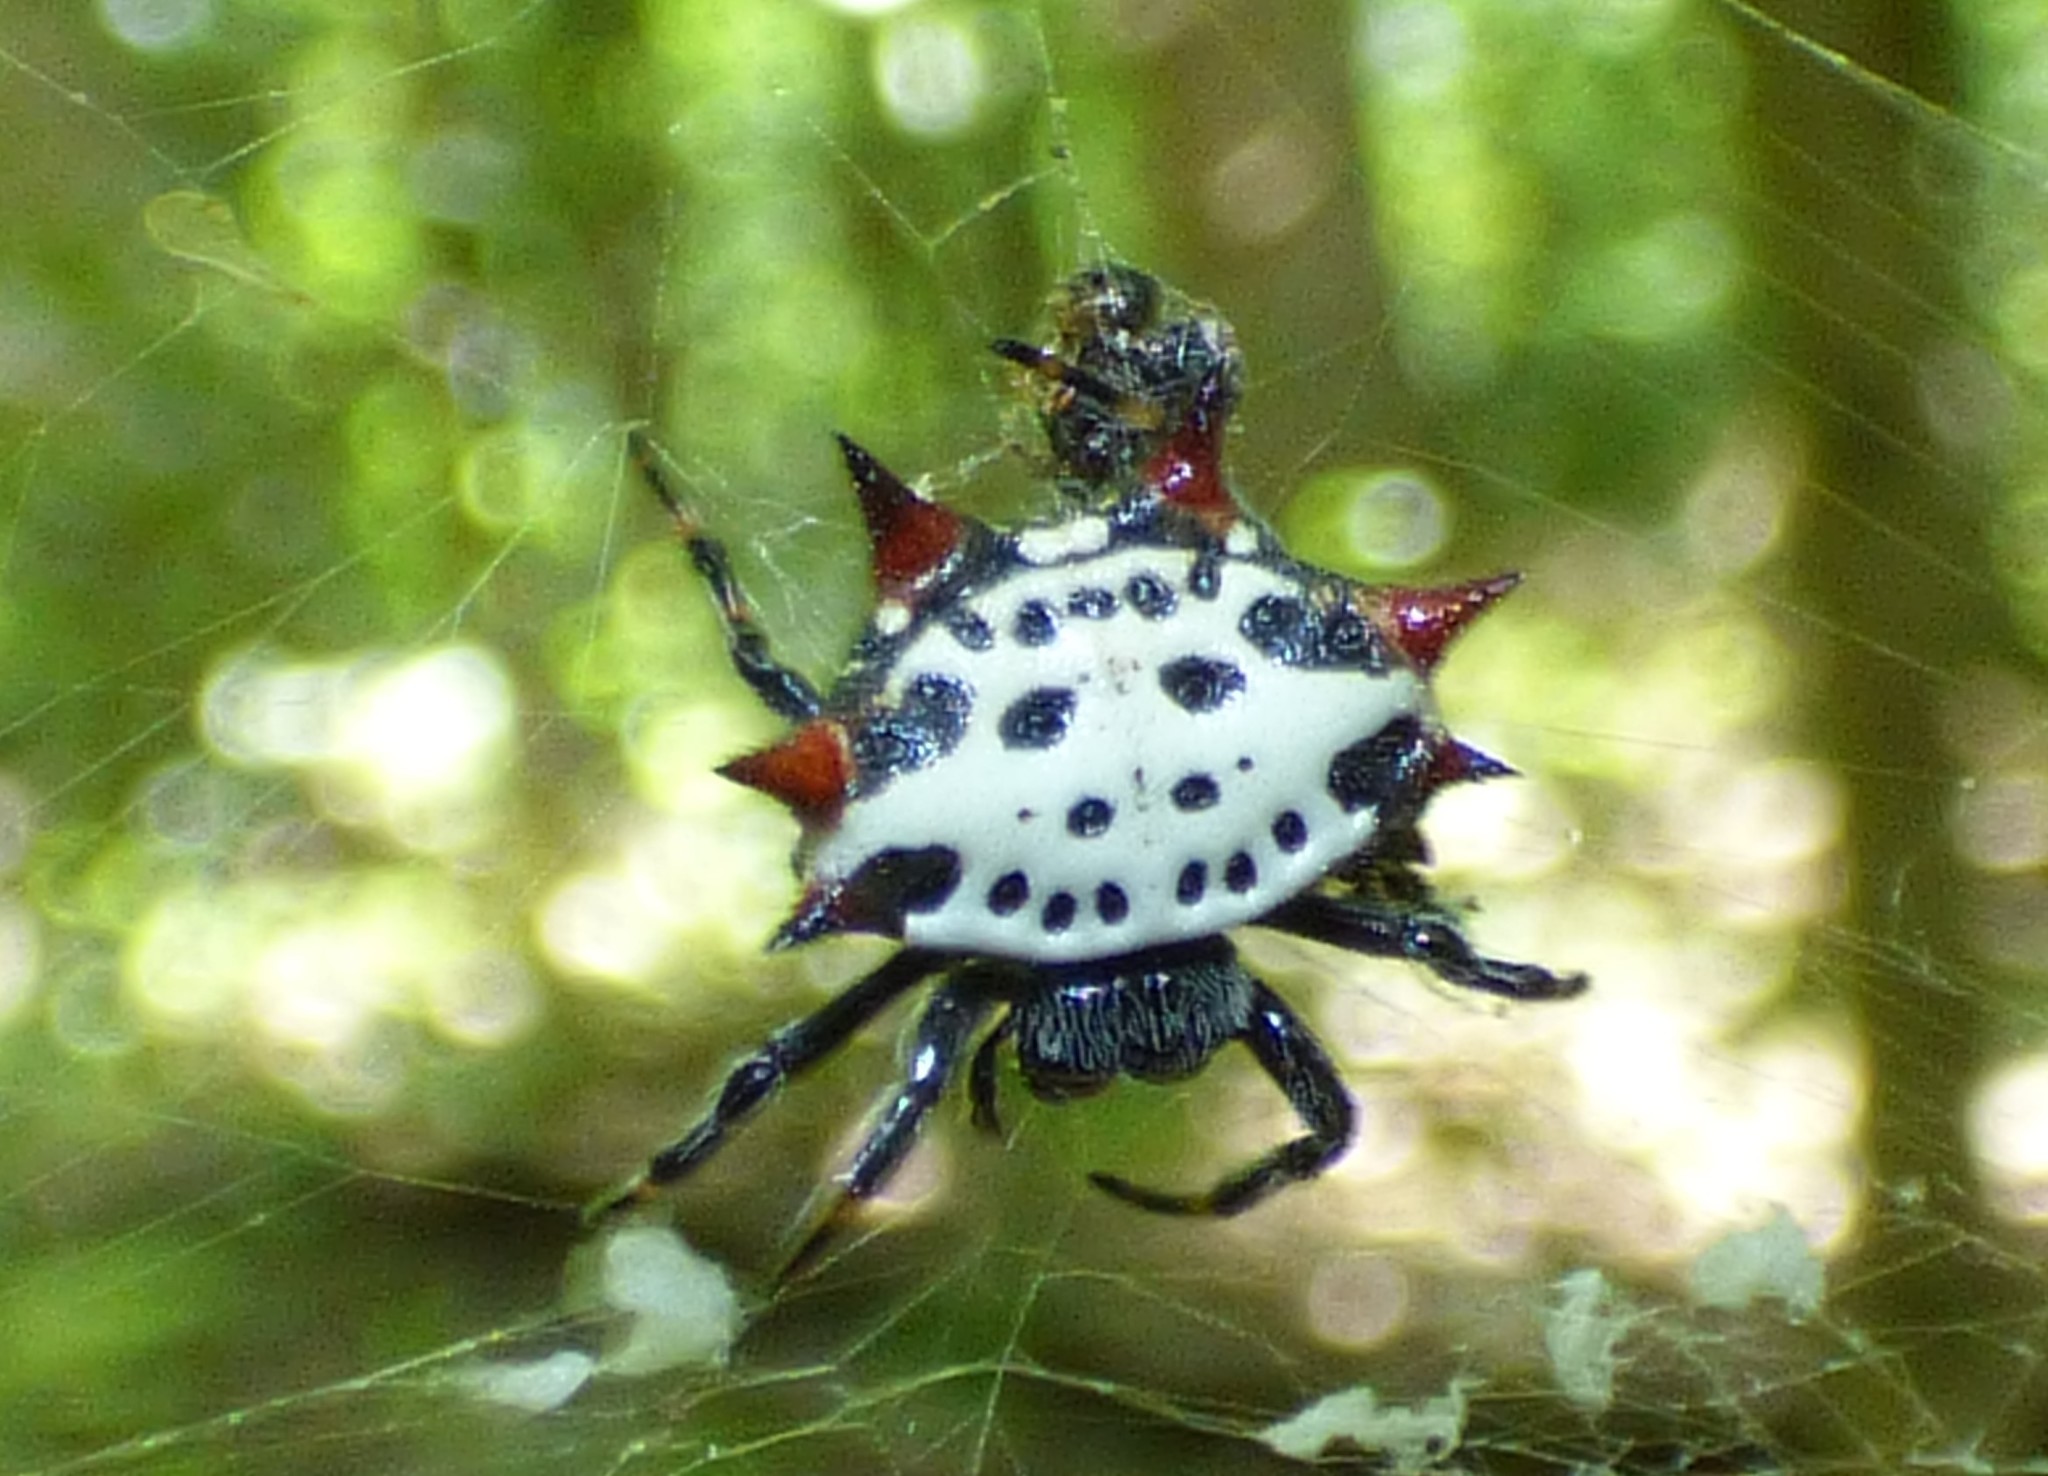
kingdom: Animalia
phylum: Arthropoda
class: Arachnida
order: Araneae
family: Araneidae
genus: Gasteracantha
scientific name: Gasteracantha cancriformis
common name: Orb weavers
